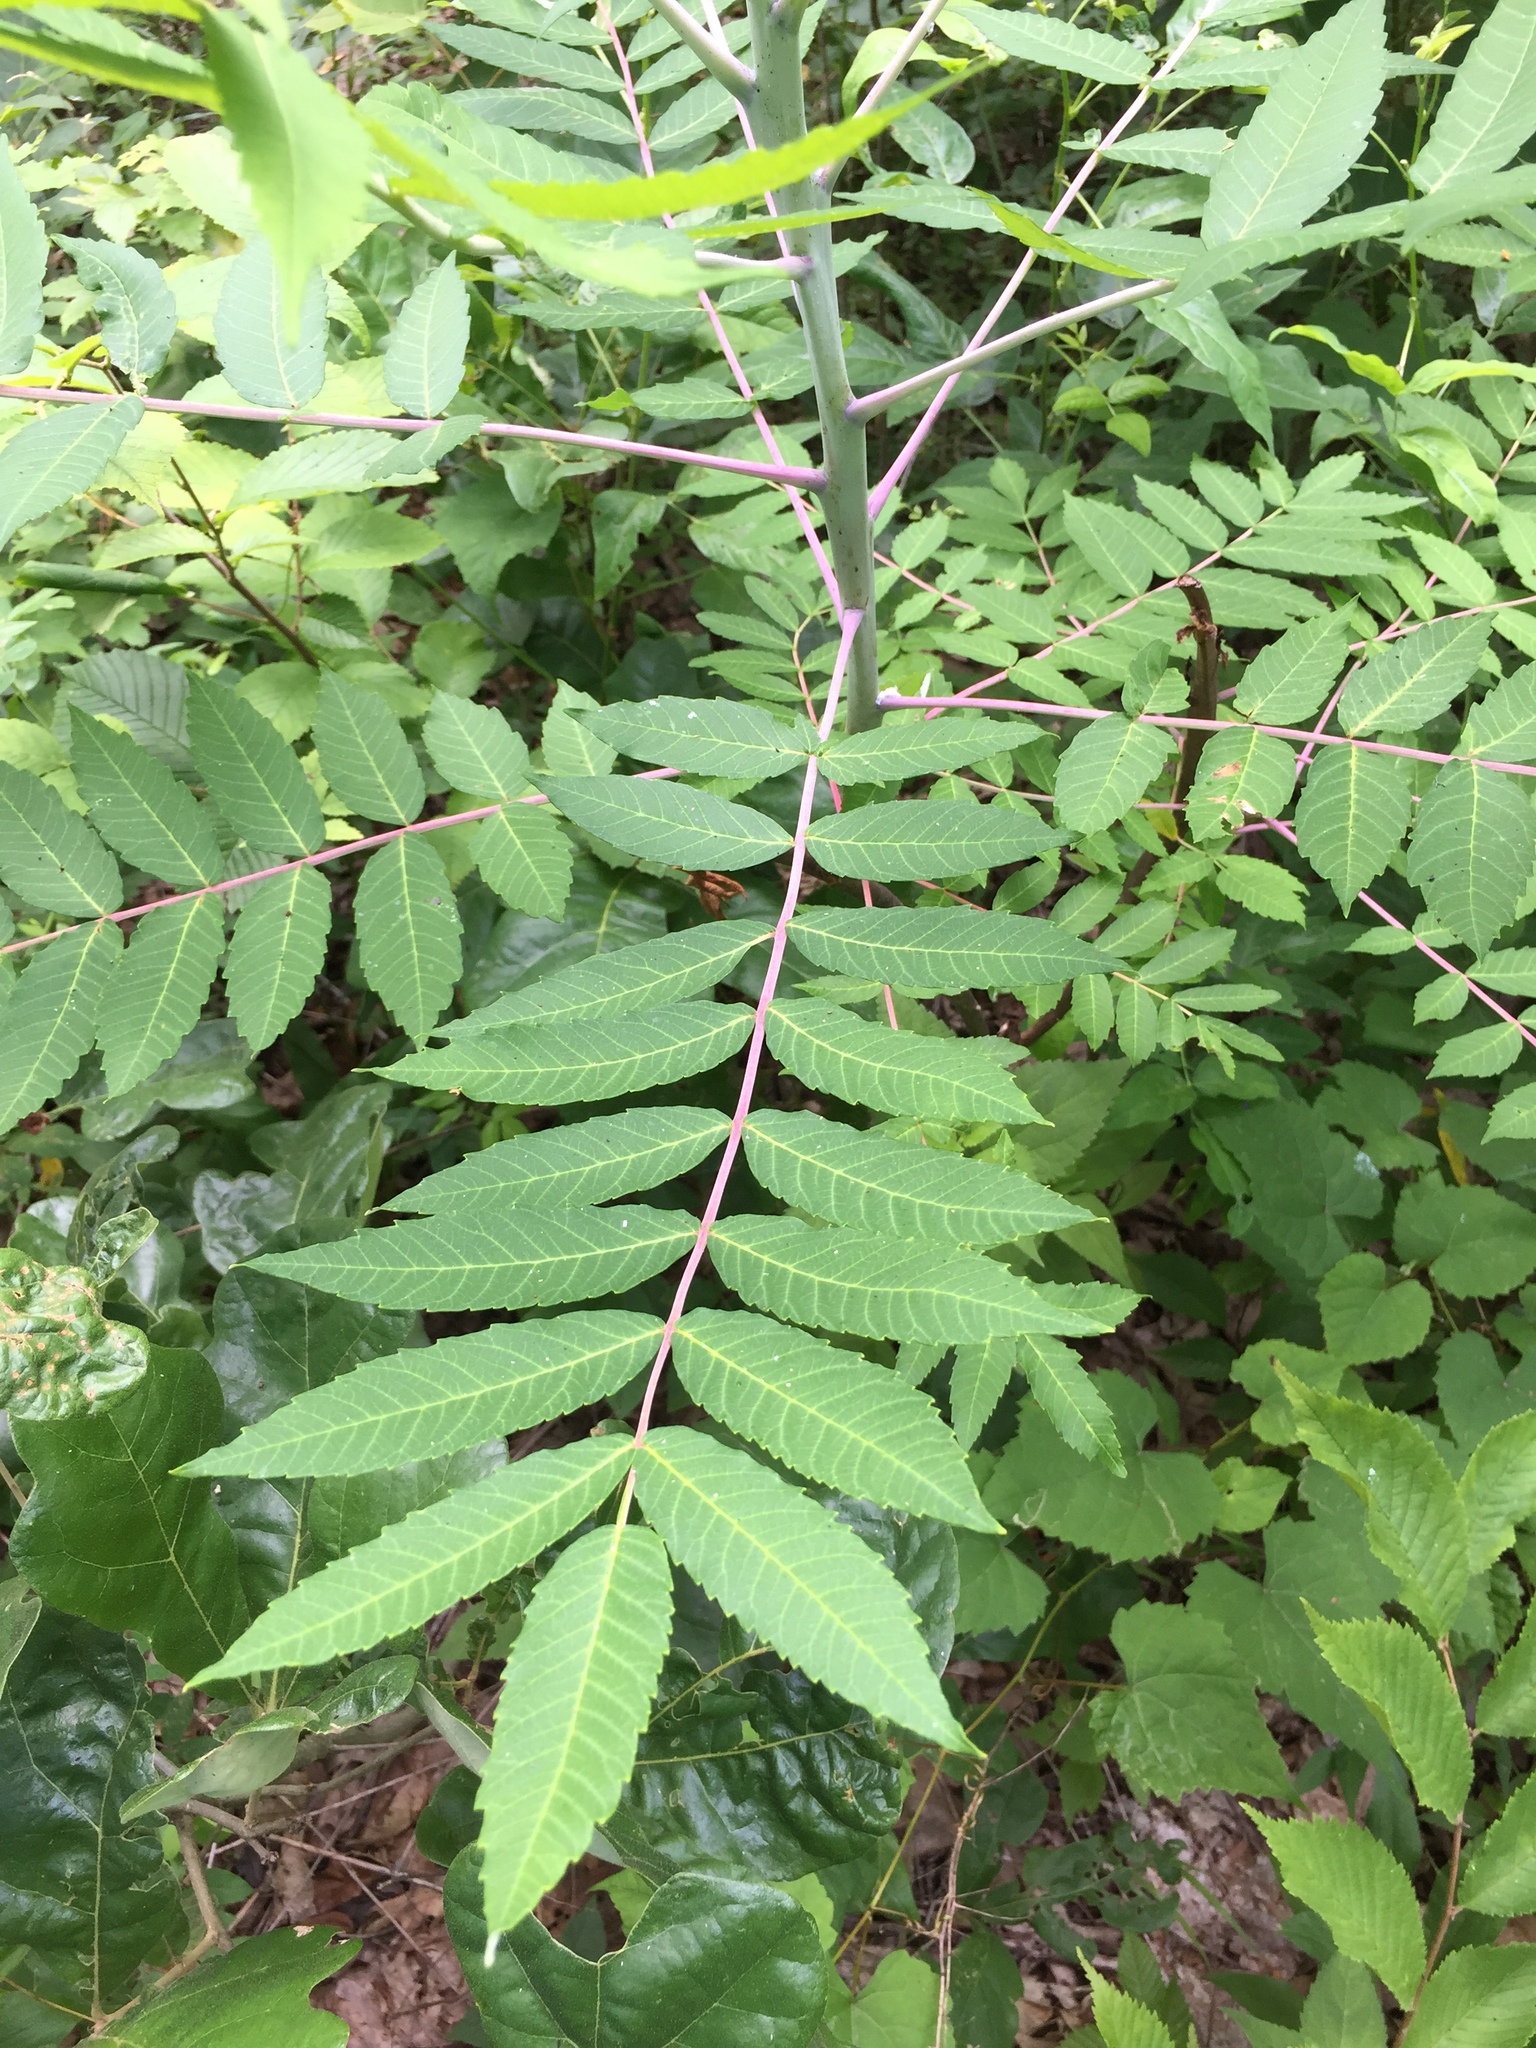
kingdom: Plantae
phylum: Tracheophyta
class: Magnoliopsida
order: Sapindales
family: Anacardiaceae
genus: Rhus
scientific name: Rhus glabra
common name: Scarlet sumac
